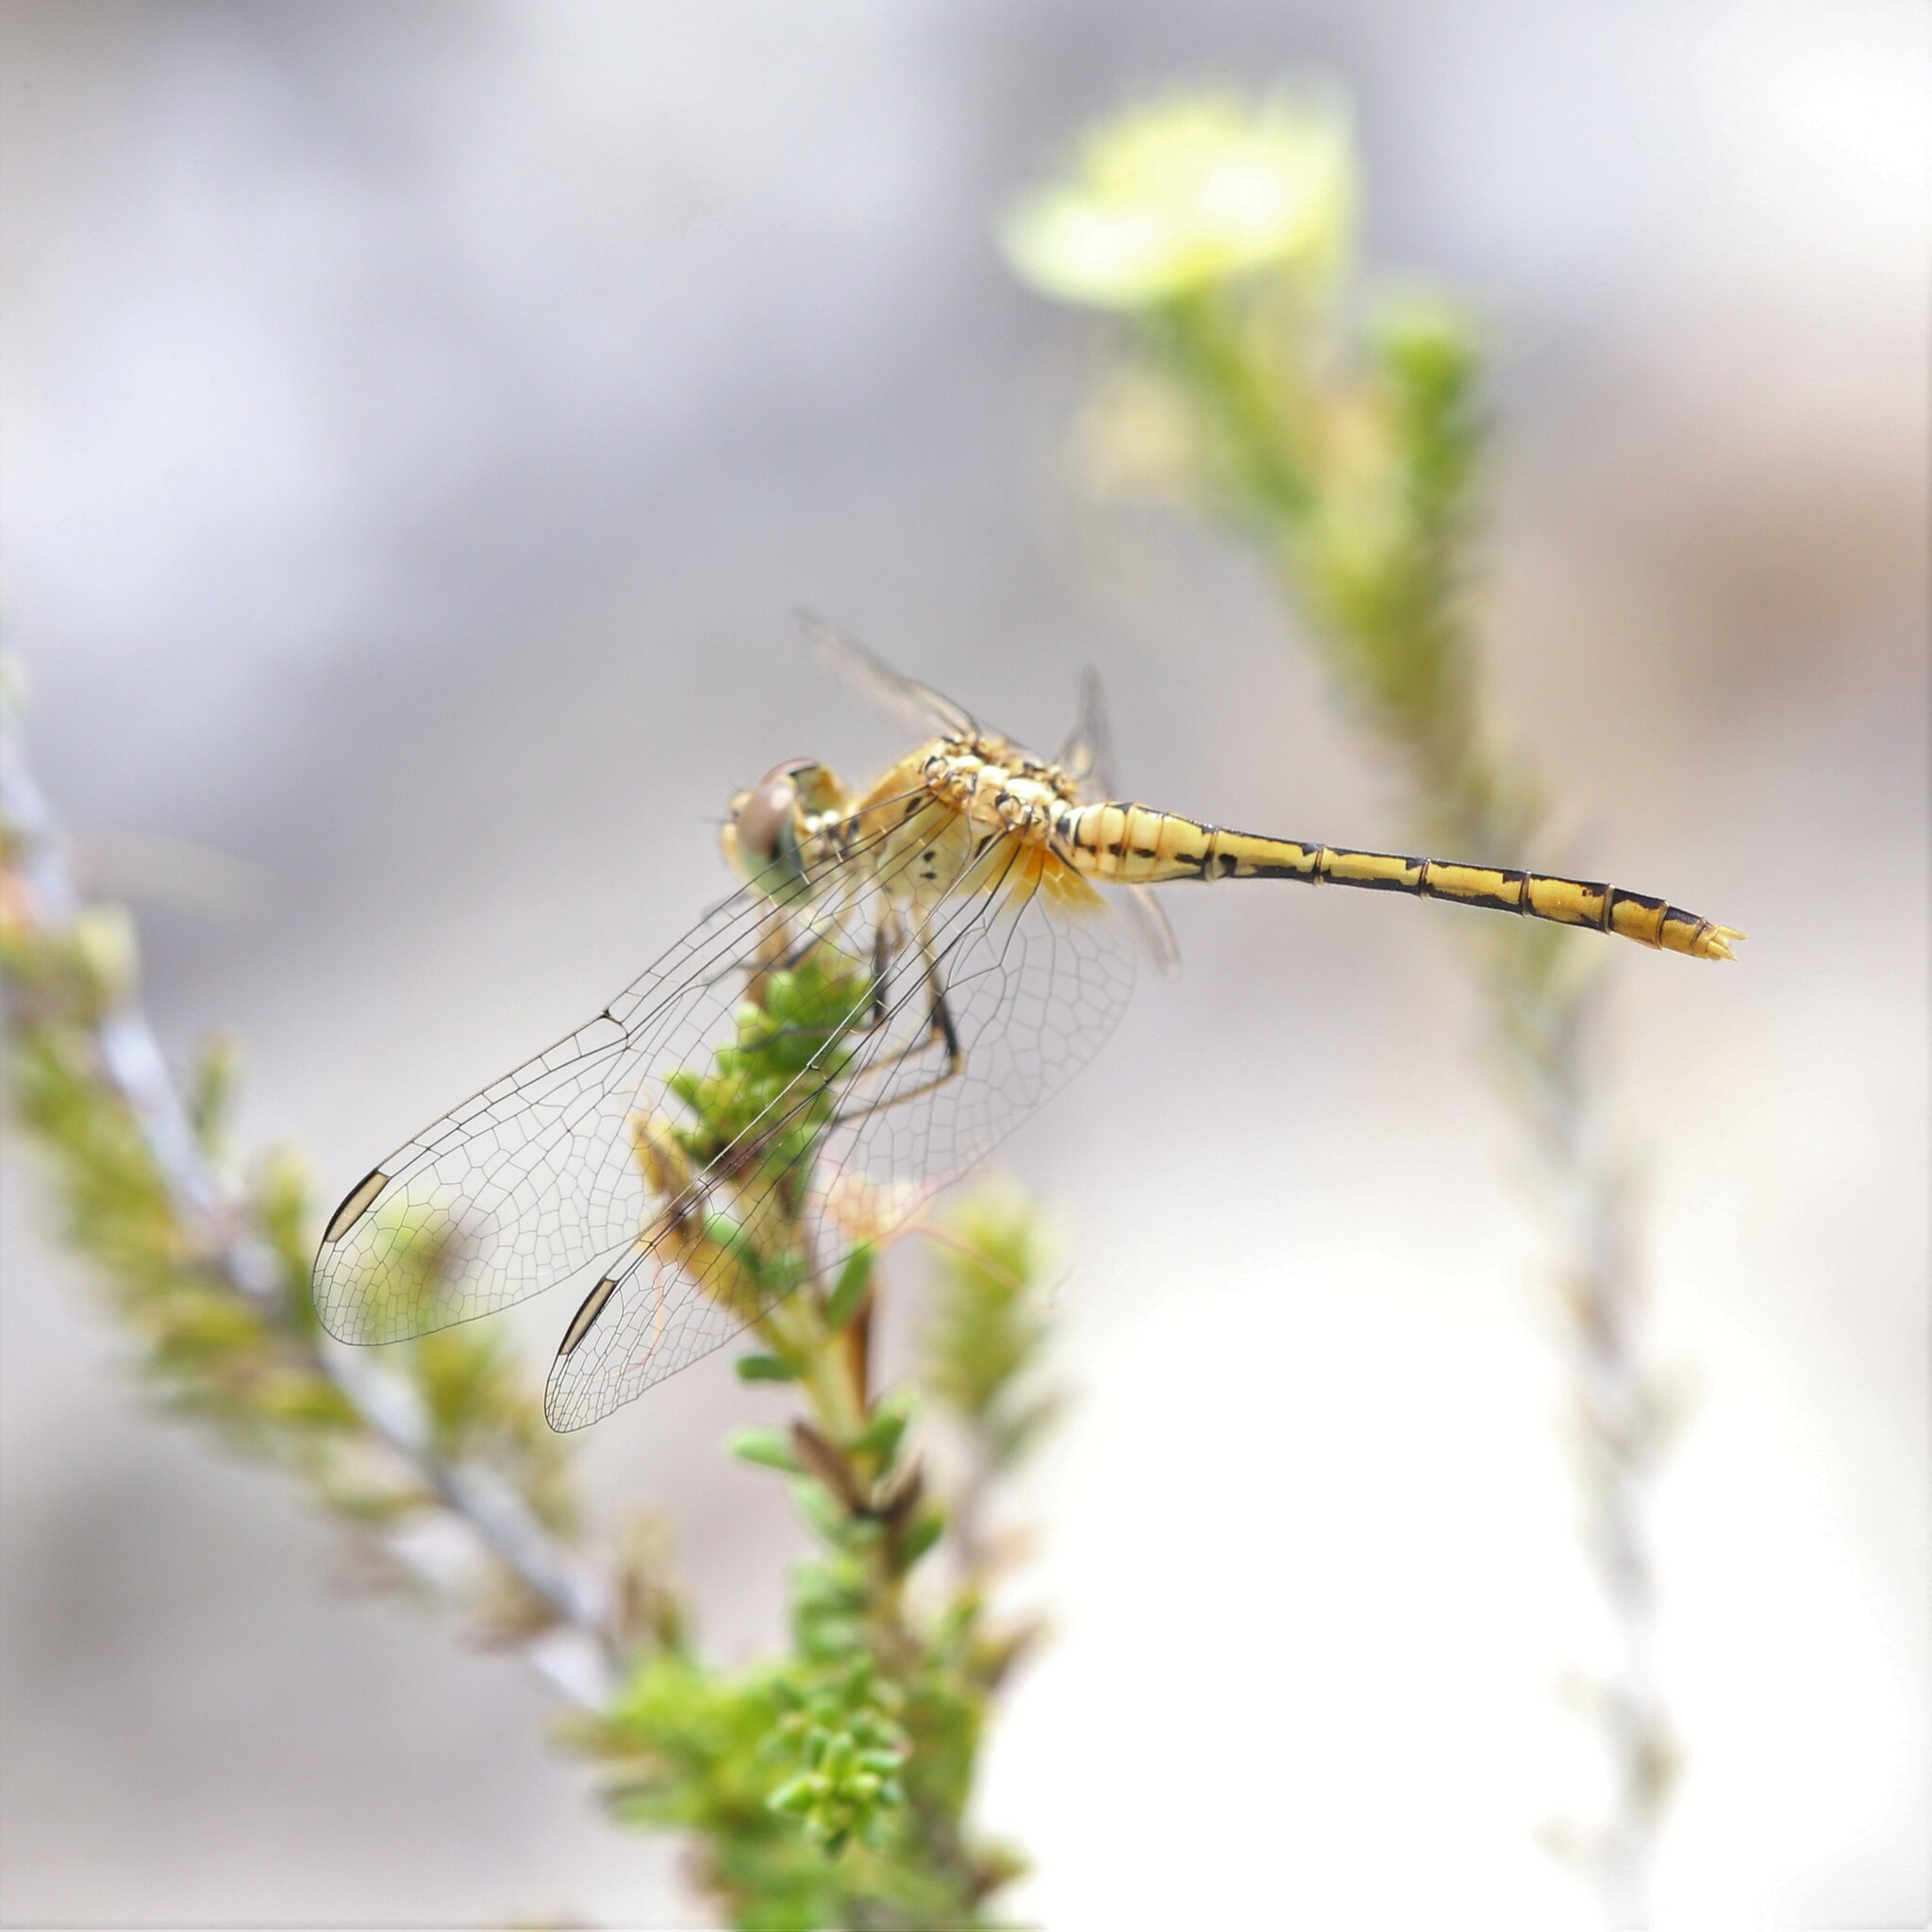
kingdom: Animalia
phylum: Arthropoda
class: Insecta
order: Odonata
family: Libellulidae
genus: Diplacodes
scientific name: Diplacodes bipunctata
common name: Red percher dragonfly
